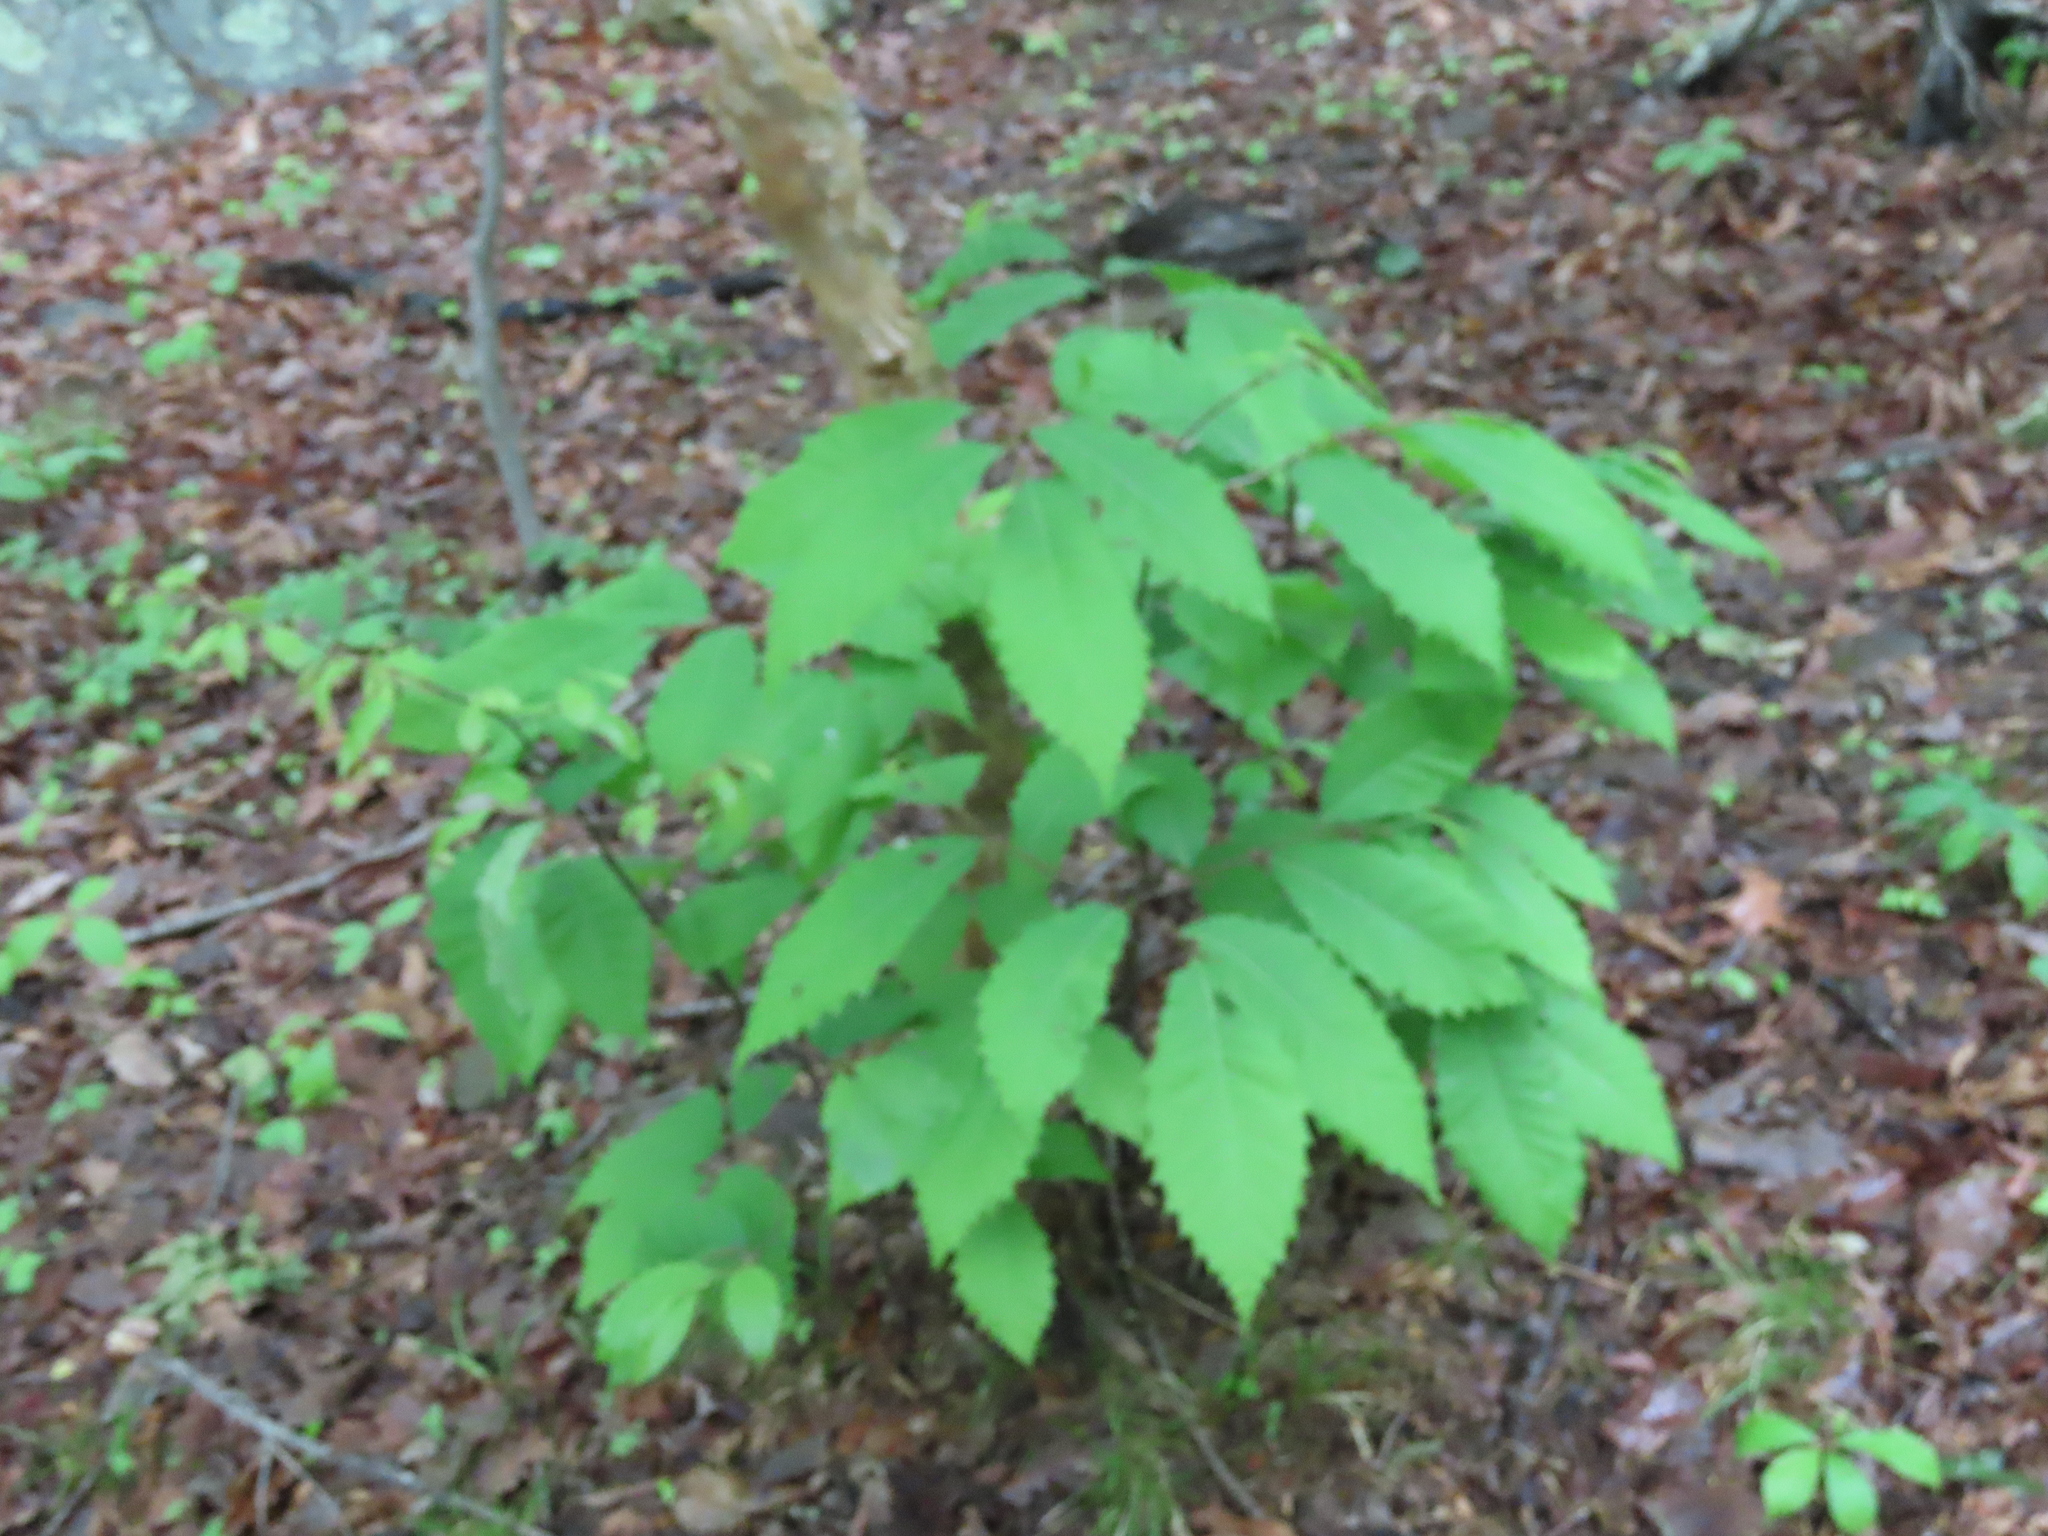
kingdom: Plantae
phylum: Tracheophyta
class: Magnoliopsida
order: Fagales
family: Fagaceae
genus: Castanea
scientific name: Castanea dentata
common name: American chestnut
